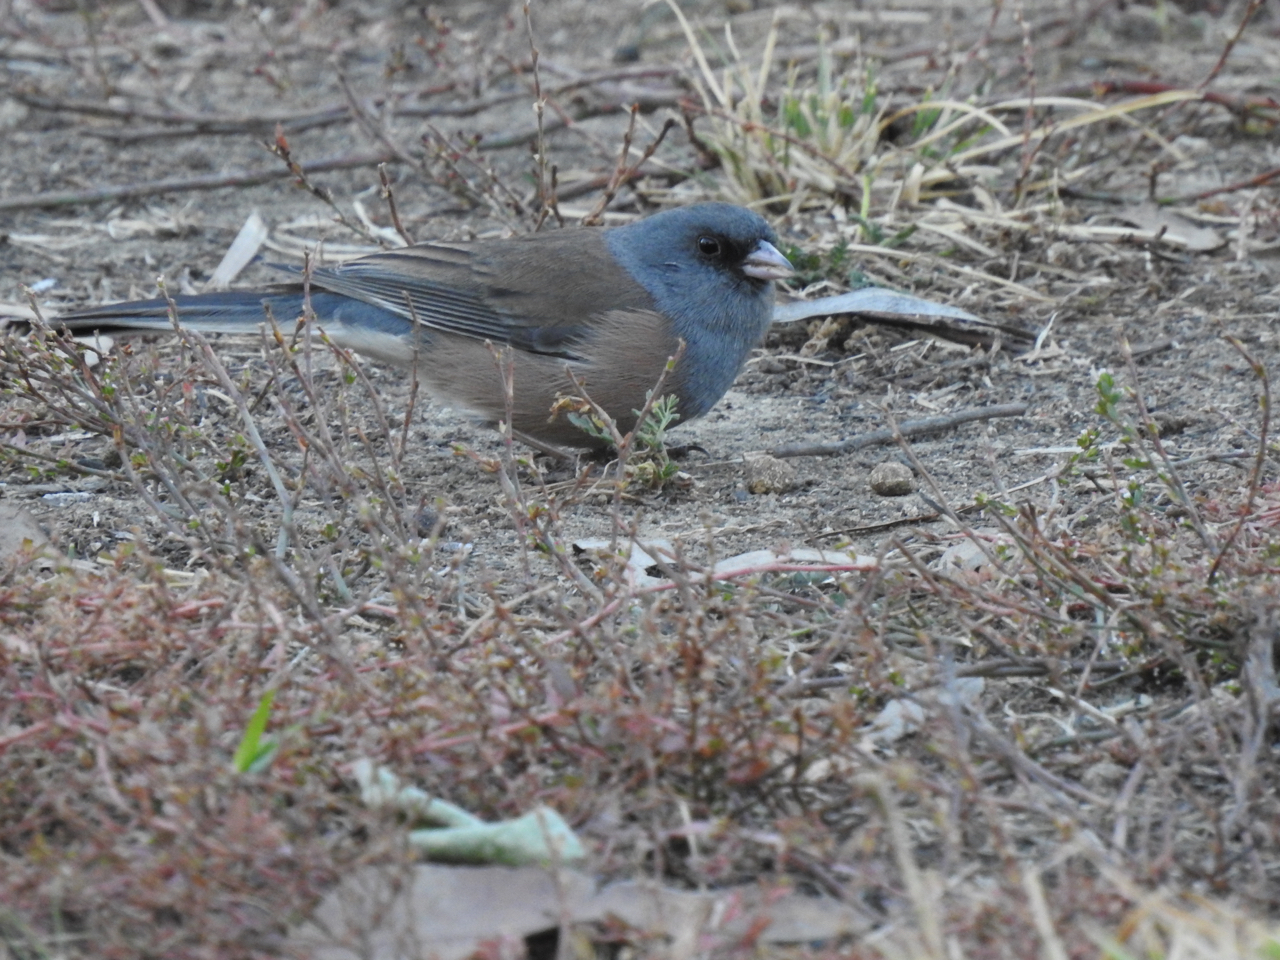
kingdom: Animalia
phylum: Chordata
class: Aves
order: Passeriformes
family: Passerellidae
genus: Junco
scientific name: Junco hyemalis
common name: Dark-eyed junco
